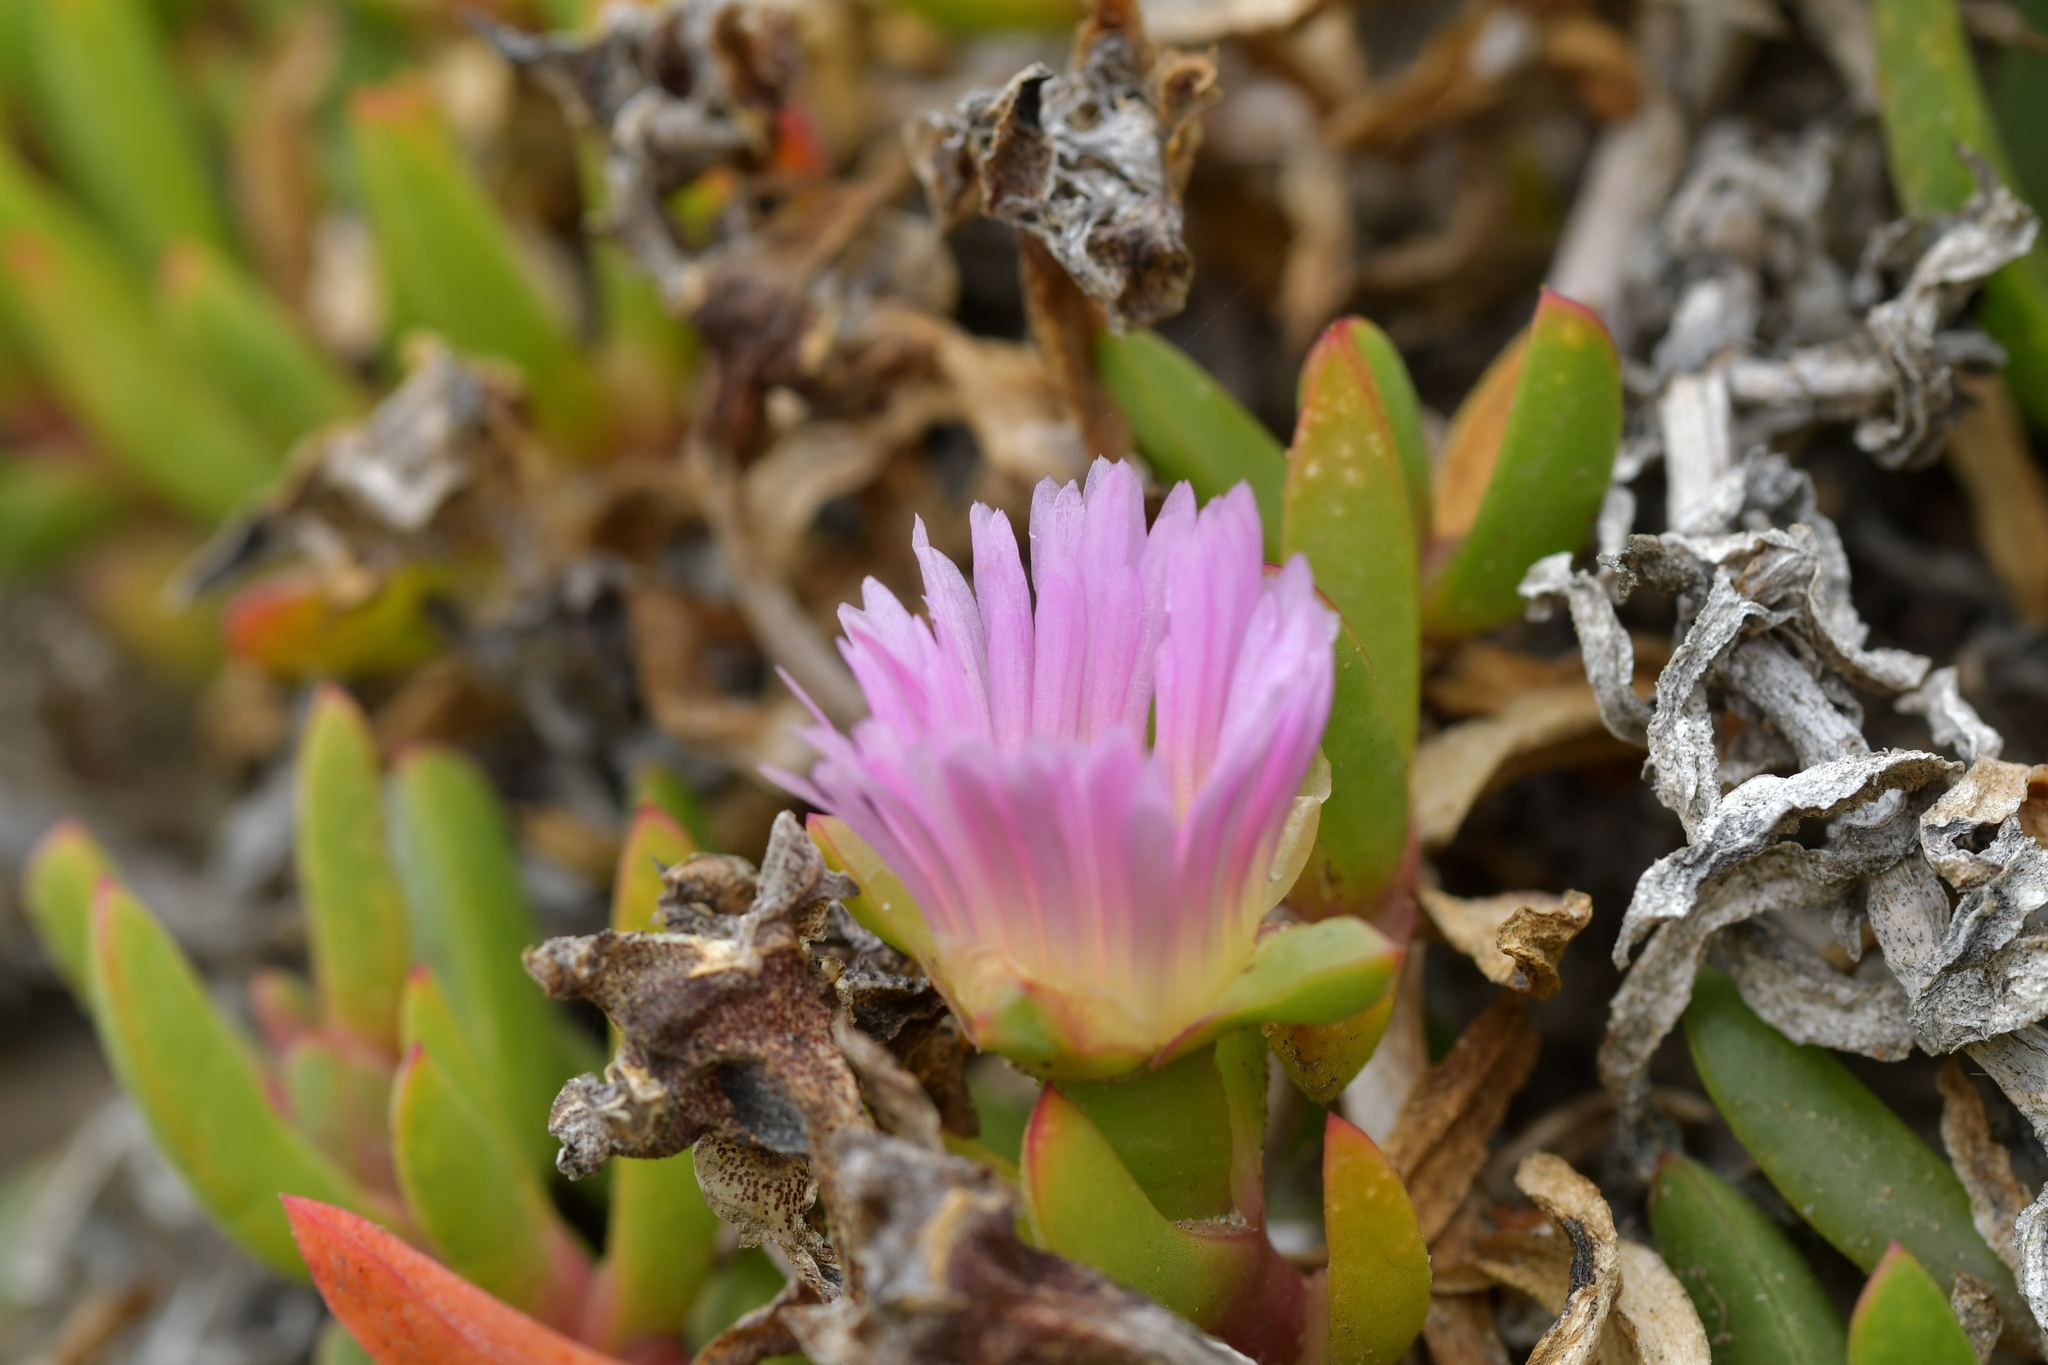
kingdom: Plantae
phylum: Tracheophyta
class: Magnoliopsida
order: Caryophyllales
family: Aizoaceae
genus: Disphyma
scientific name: Disphyma australe
